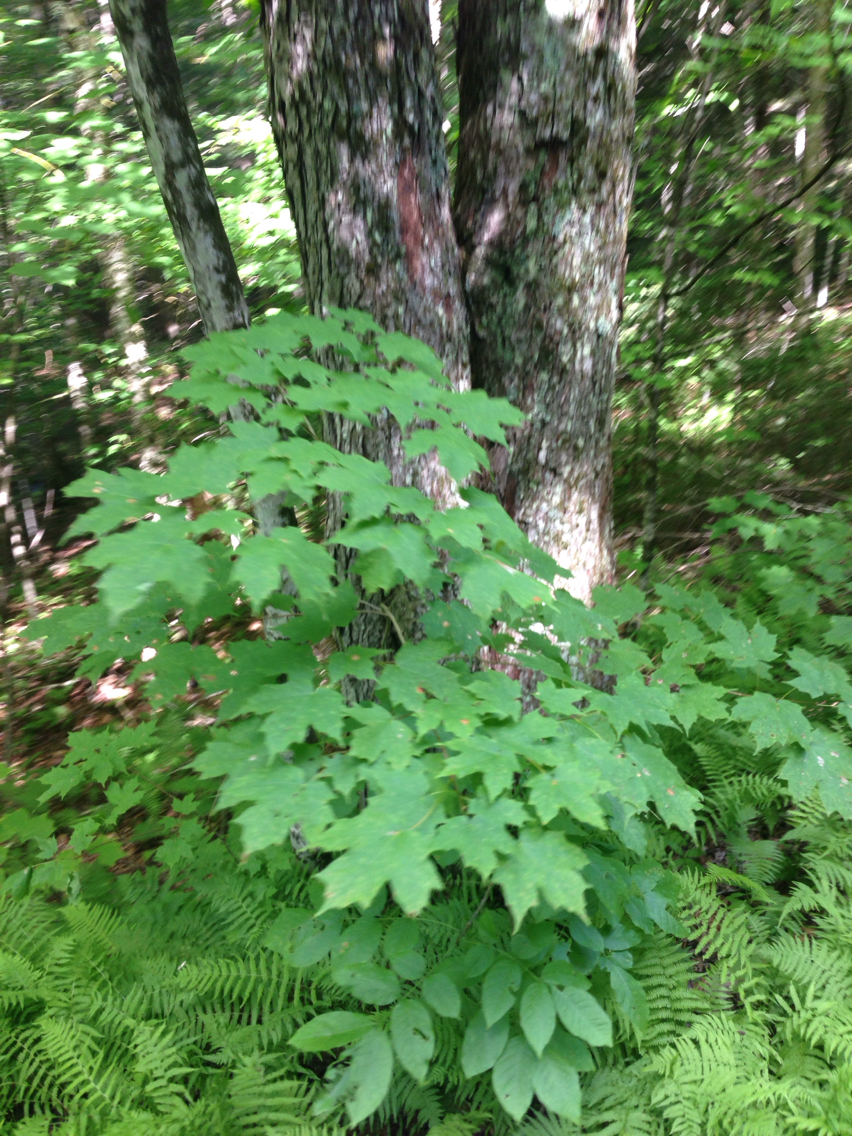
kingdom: Plantae
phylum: Tracheophyta
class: Magnoliopsida
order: Sapindales
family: Sapindaceae
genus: Acer
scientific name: Acer saccharum
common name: Sugar maple
